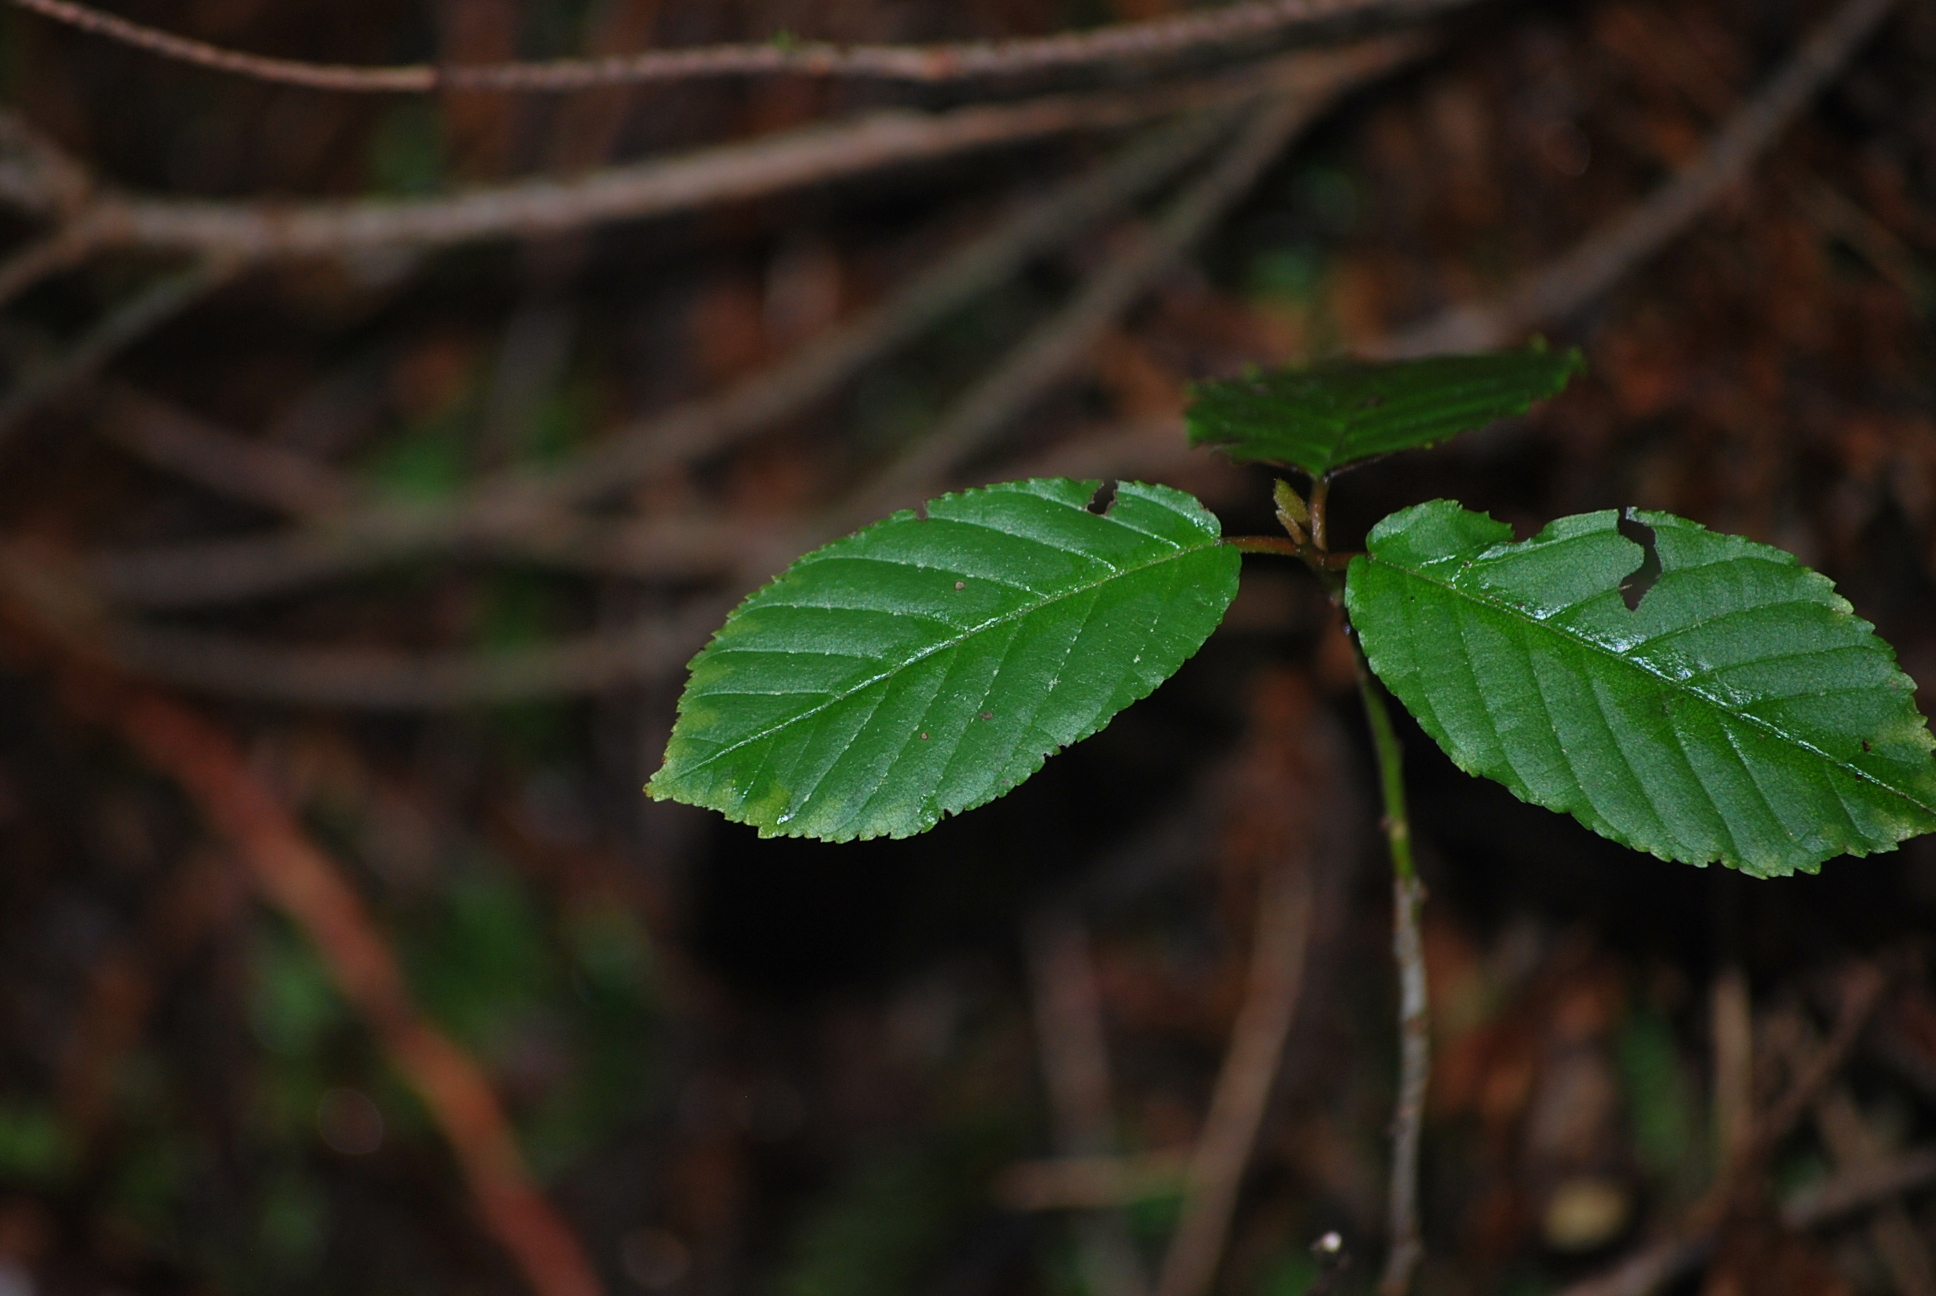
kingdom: Plantae
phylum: Tracheophyta
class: Magnoliopsida
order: Rosales
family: Rhamnaceae
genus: Frangula
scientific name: Frangula purshiana
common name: Cascara buckthorn
